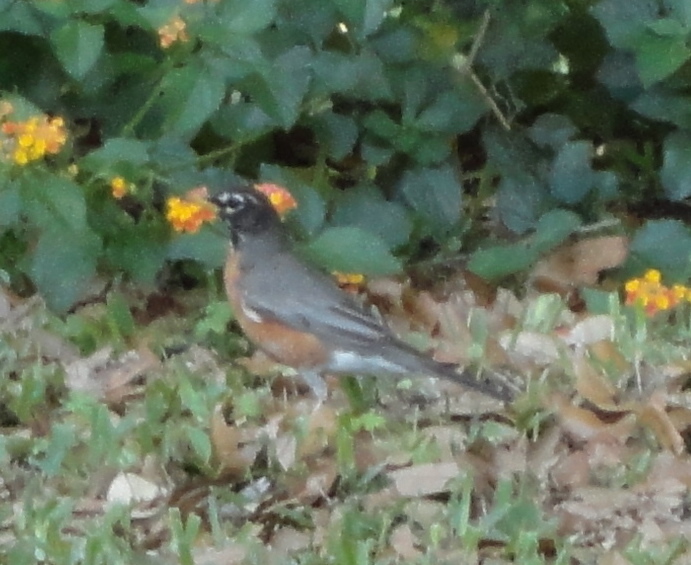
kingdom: Animalia
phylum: Chordata
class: Aves
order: Passeriformes
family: Turdidae
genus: Turdus
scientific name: Turdus migratorius
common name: American robin
